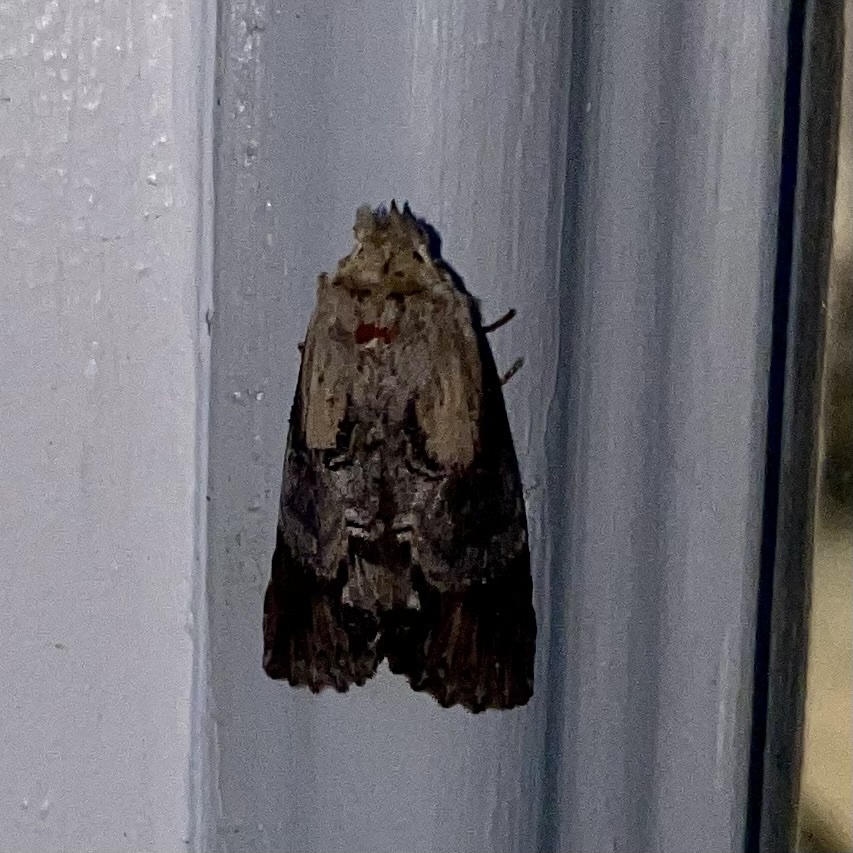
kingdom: Animalia
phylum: Arthropoda
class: Insecta
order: Lepidoptera
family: Notodontidae
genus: Dasylophia
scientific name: Dasylophia thyatiroides
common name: Gray-patched prominent
